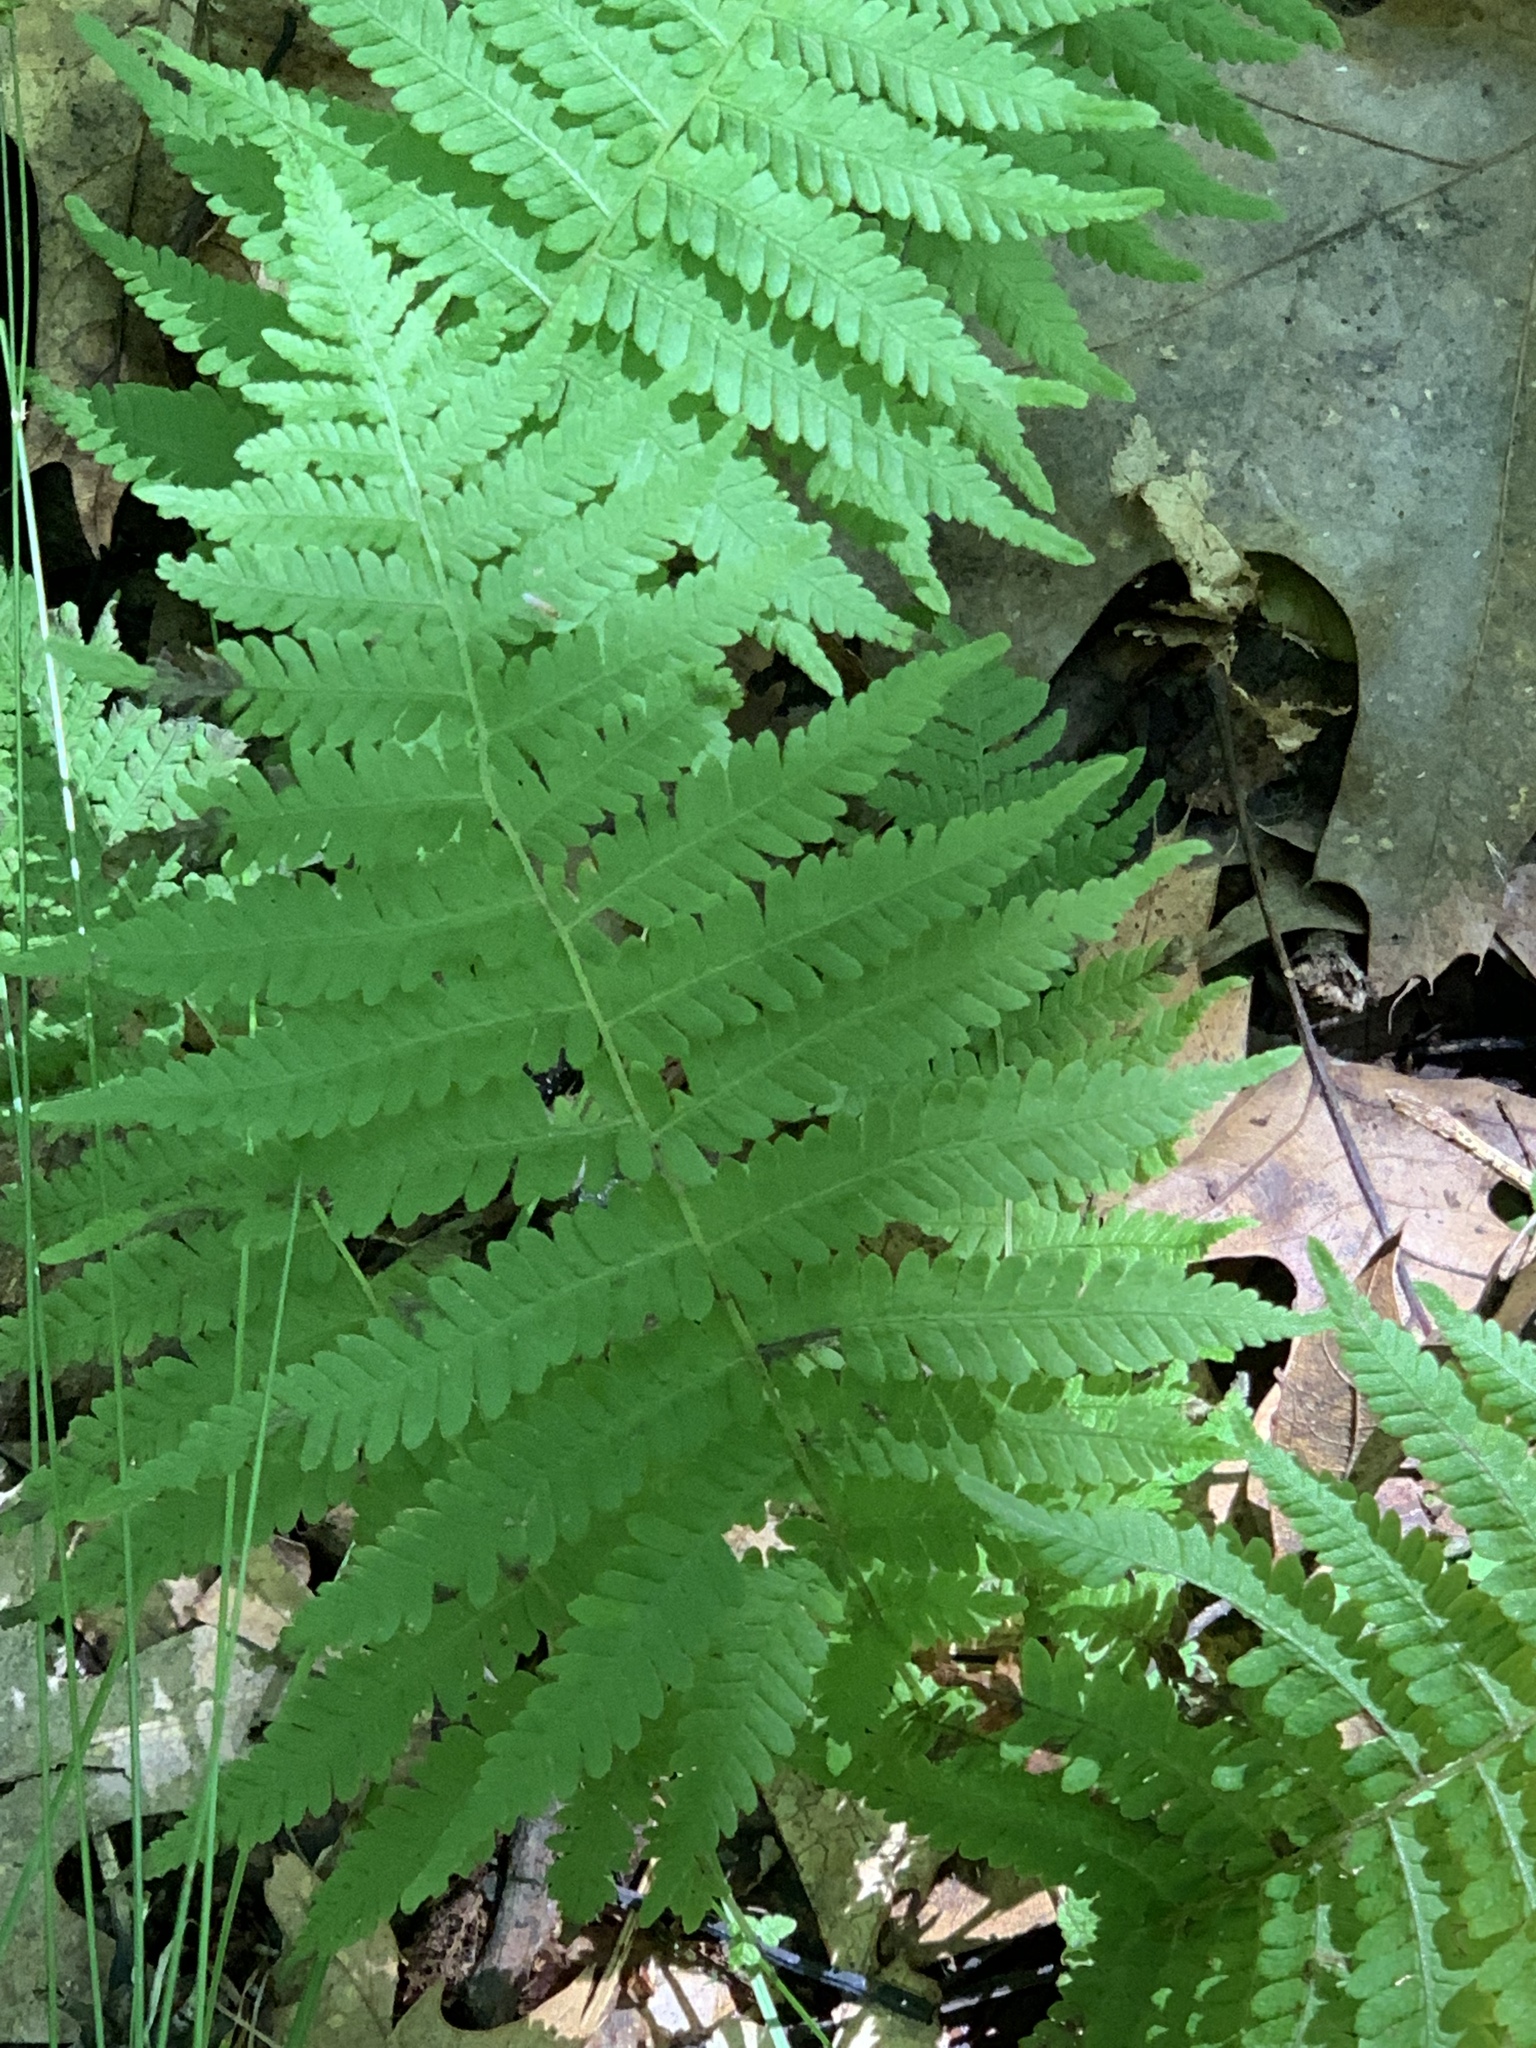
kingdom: Plantae
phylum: Tracheophyta
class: Polypodiopsida
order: Polypodiales
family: Thelypteridaceae
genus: Amauropelta
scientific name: Amauropelta noveboracensis
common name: New york fern
